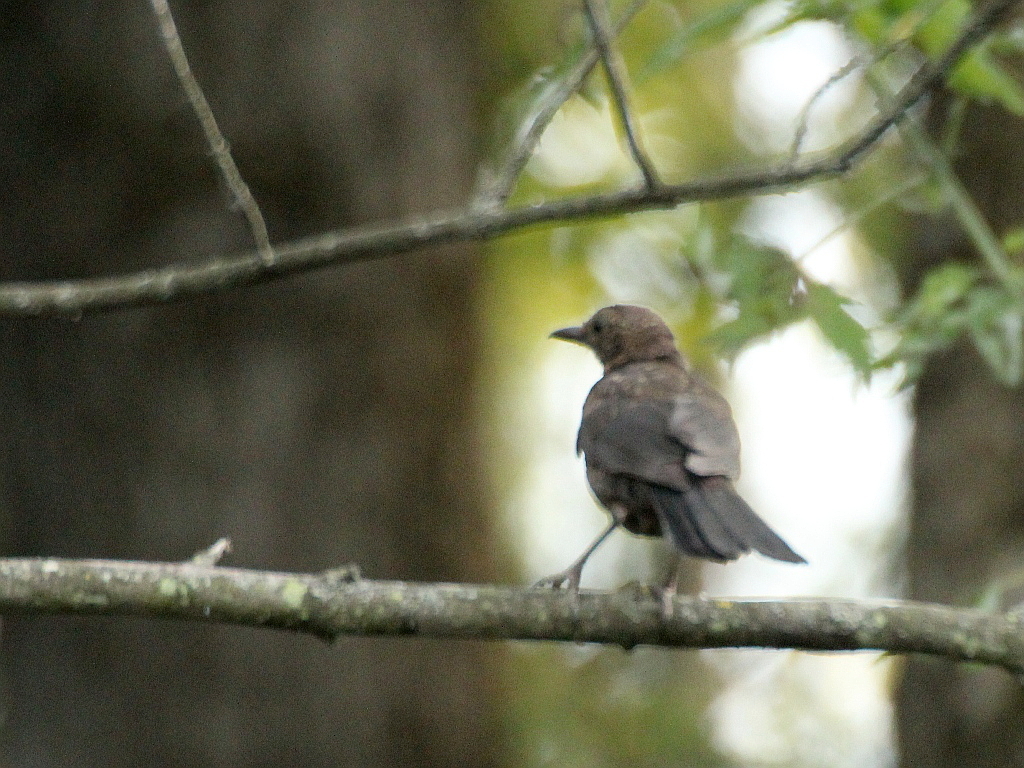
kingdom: Animalia
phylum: Chordata
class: Aves
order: Passeriformes
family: Turdidae
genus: Turdus
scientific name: Turdus merula
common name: Common blackbird
